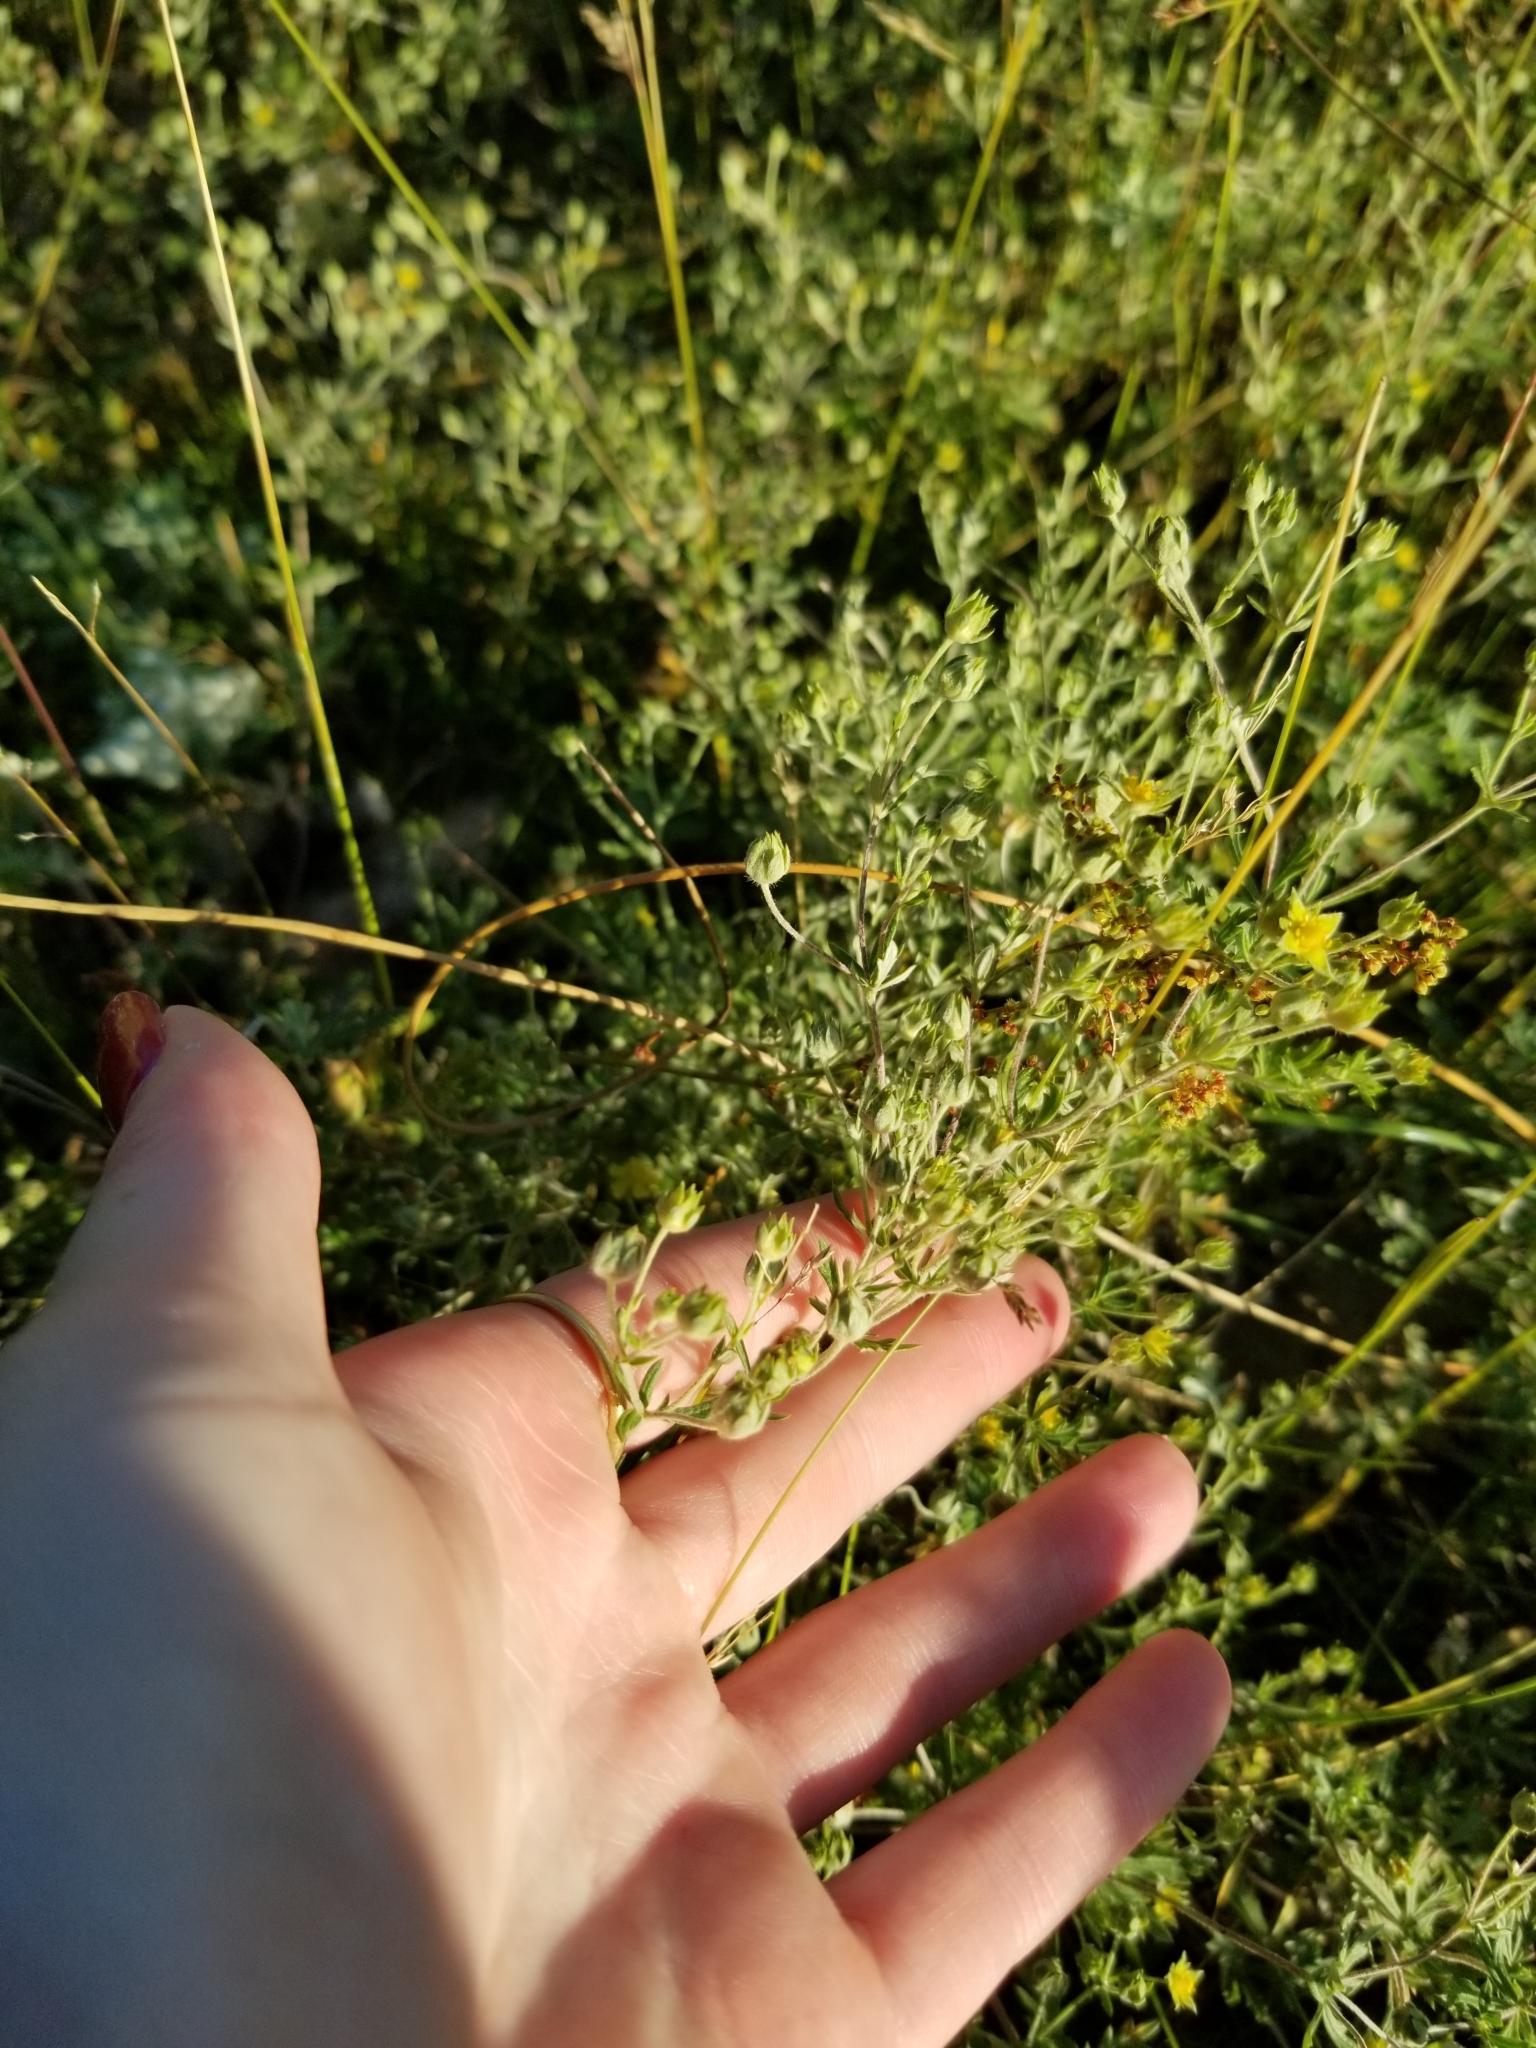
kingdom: Plantae
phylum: Tracheophyta
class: Magnoliopsida
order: Rosales
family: Rosaceae
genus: Potentilla
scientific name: Potentilla argentea
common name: Hoary cinquefoil
